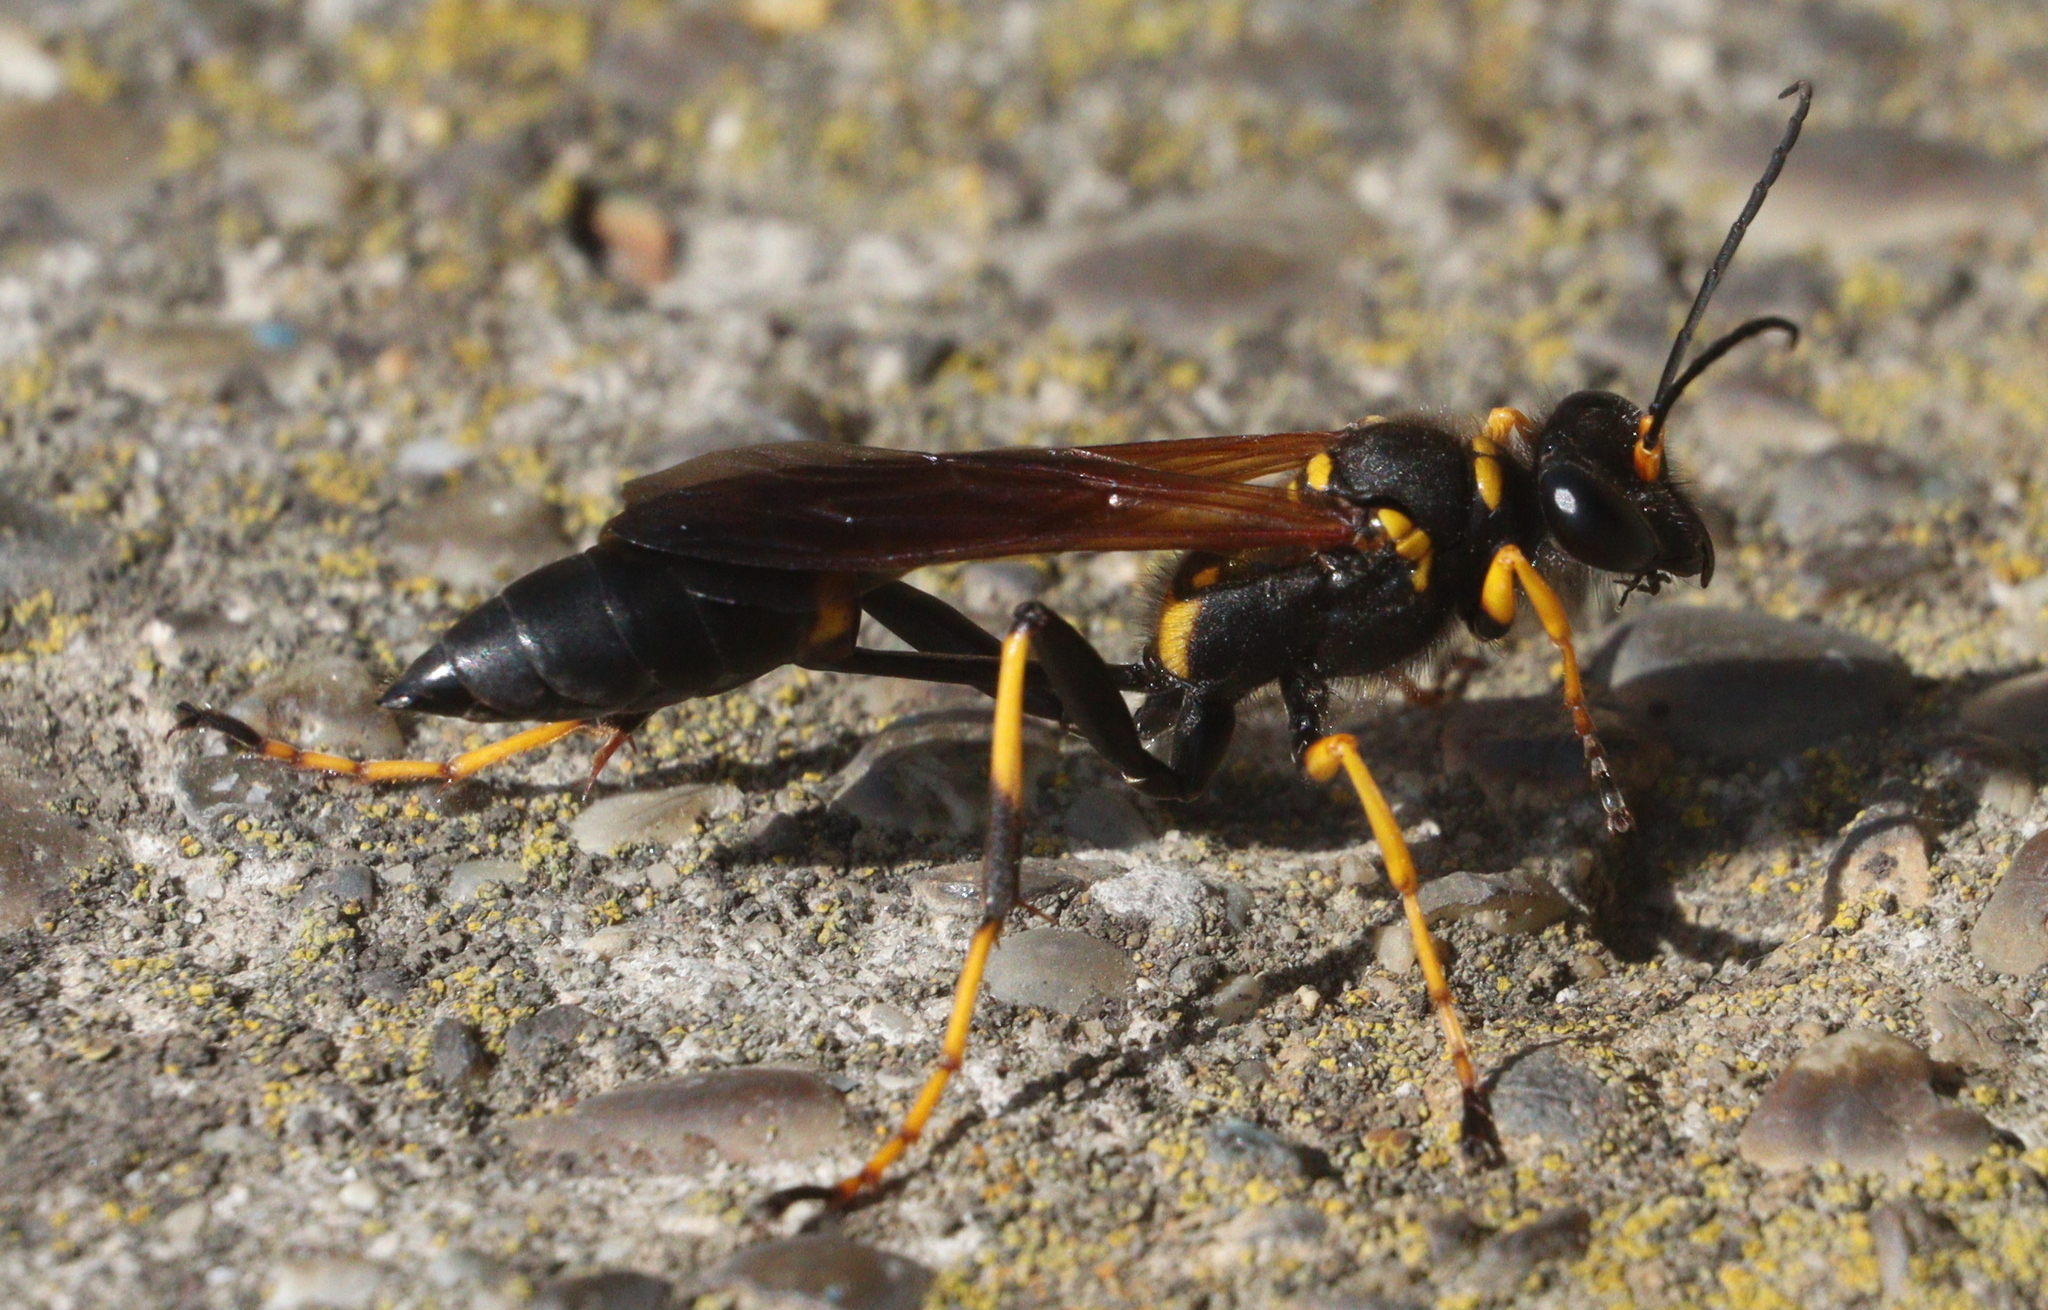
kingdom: Animalia
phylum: Arthropoda
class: Insecta
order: Hymenoptera
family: Sphecidae
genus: Sceliphron
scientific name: Sceliphron caementarium
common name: Mud dauber
